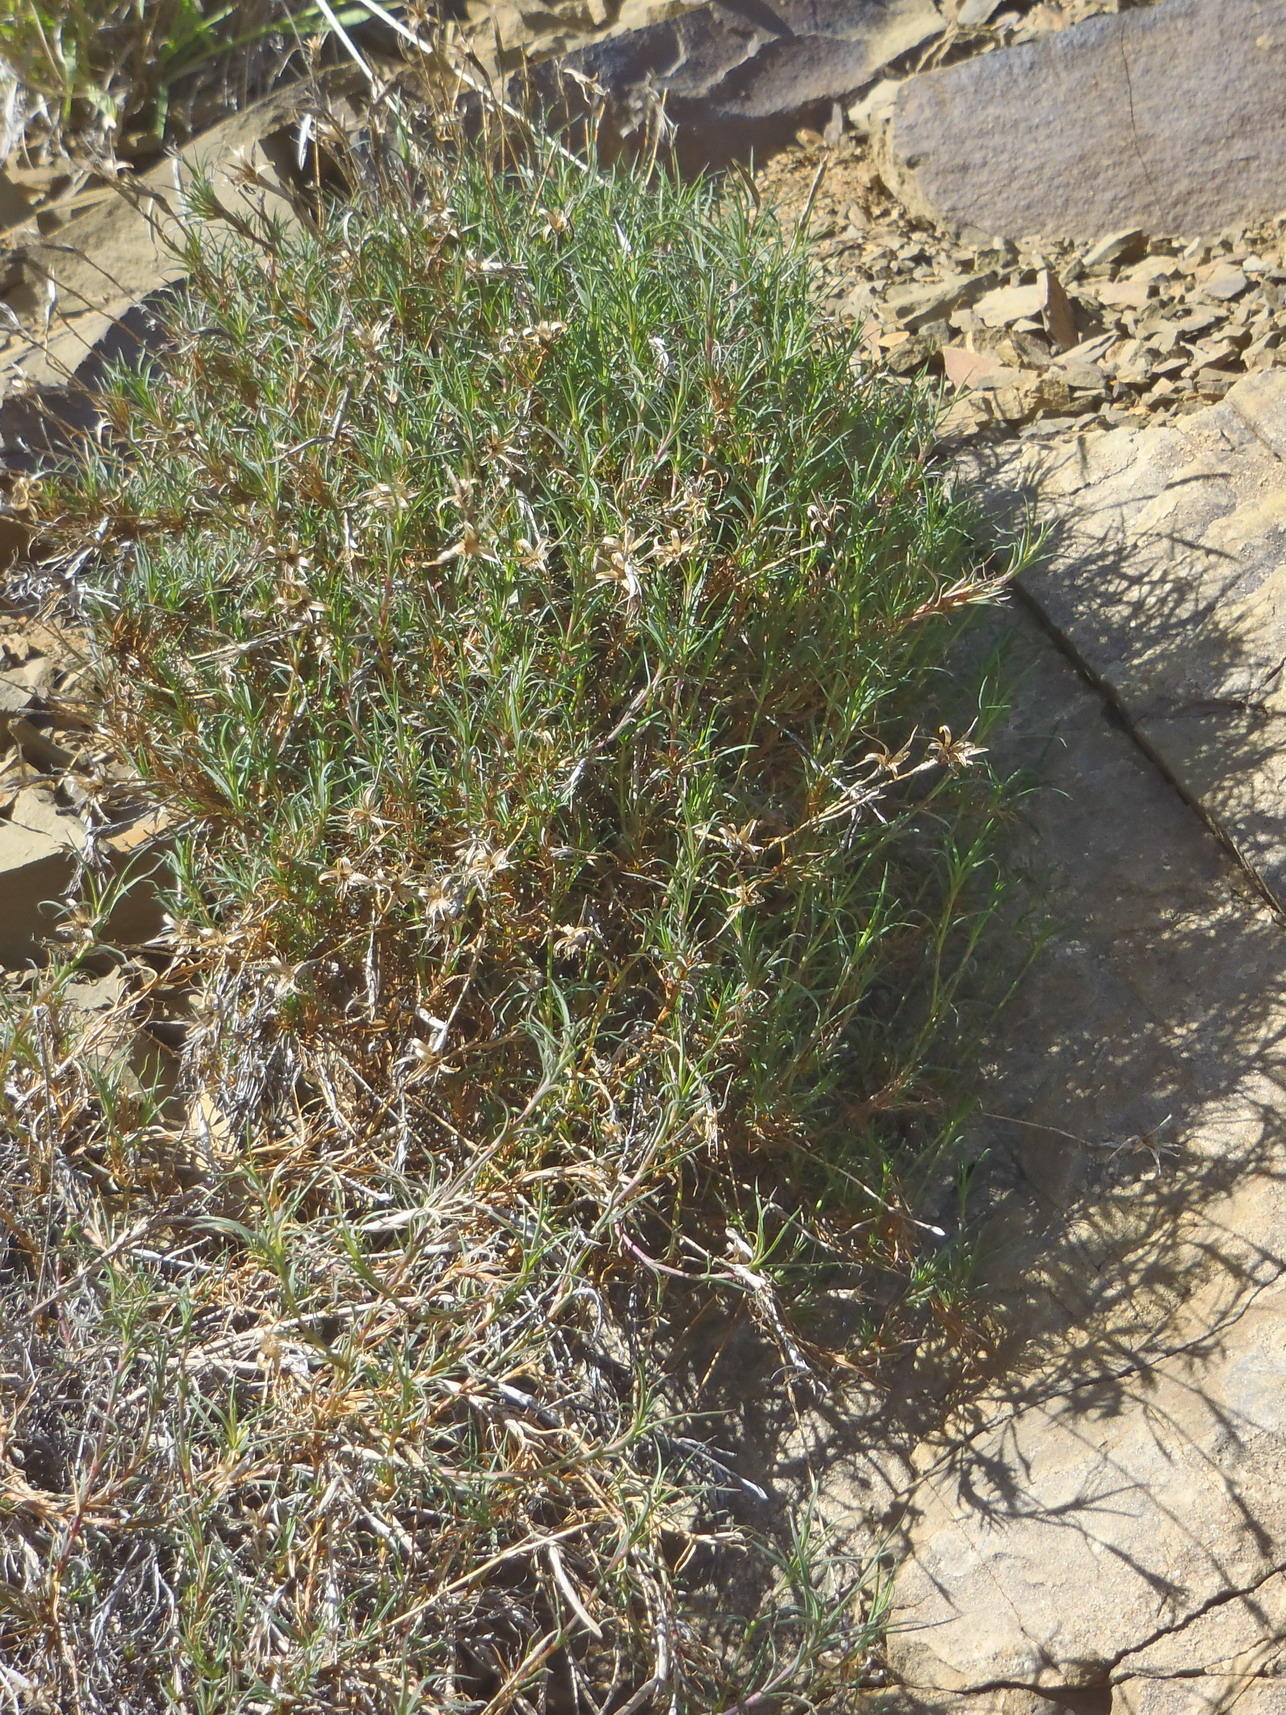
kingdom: Plantae
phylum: Tracheophyta
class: Magnoliopsida
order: Caryophyllales
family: Caryophyllaceae
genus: Dianthus
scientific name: Dianthus thunbergii
